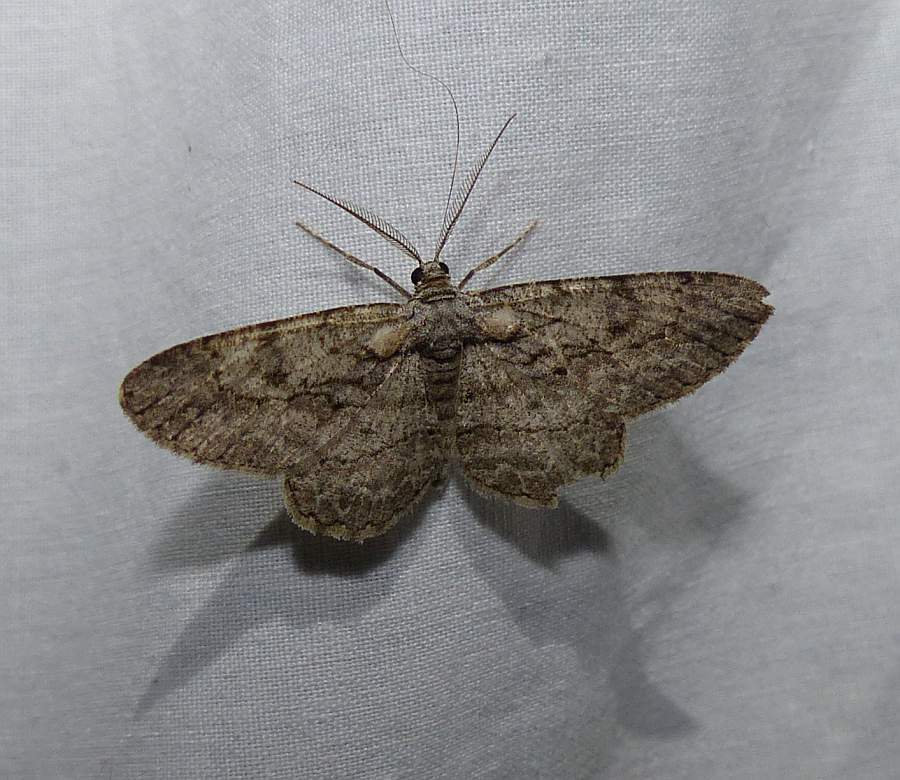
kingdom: Animalia
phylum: Arthropoda
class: Insecta
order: Lepidoptera
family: Geometridae
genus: Anavitrinella
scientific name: Anavitrinella pampinaria
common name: Common gray
